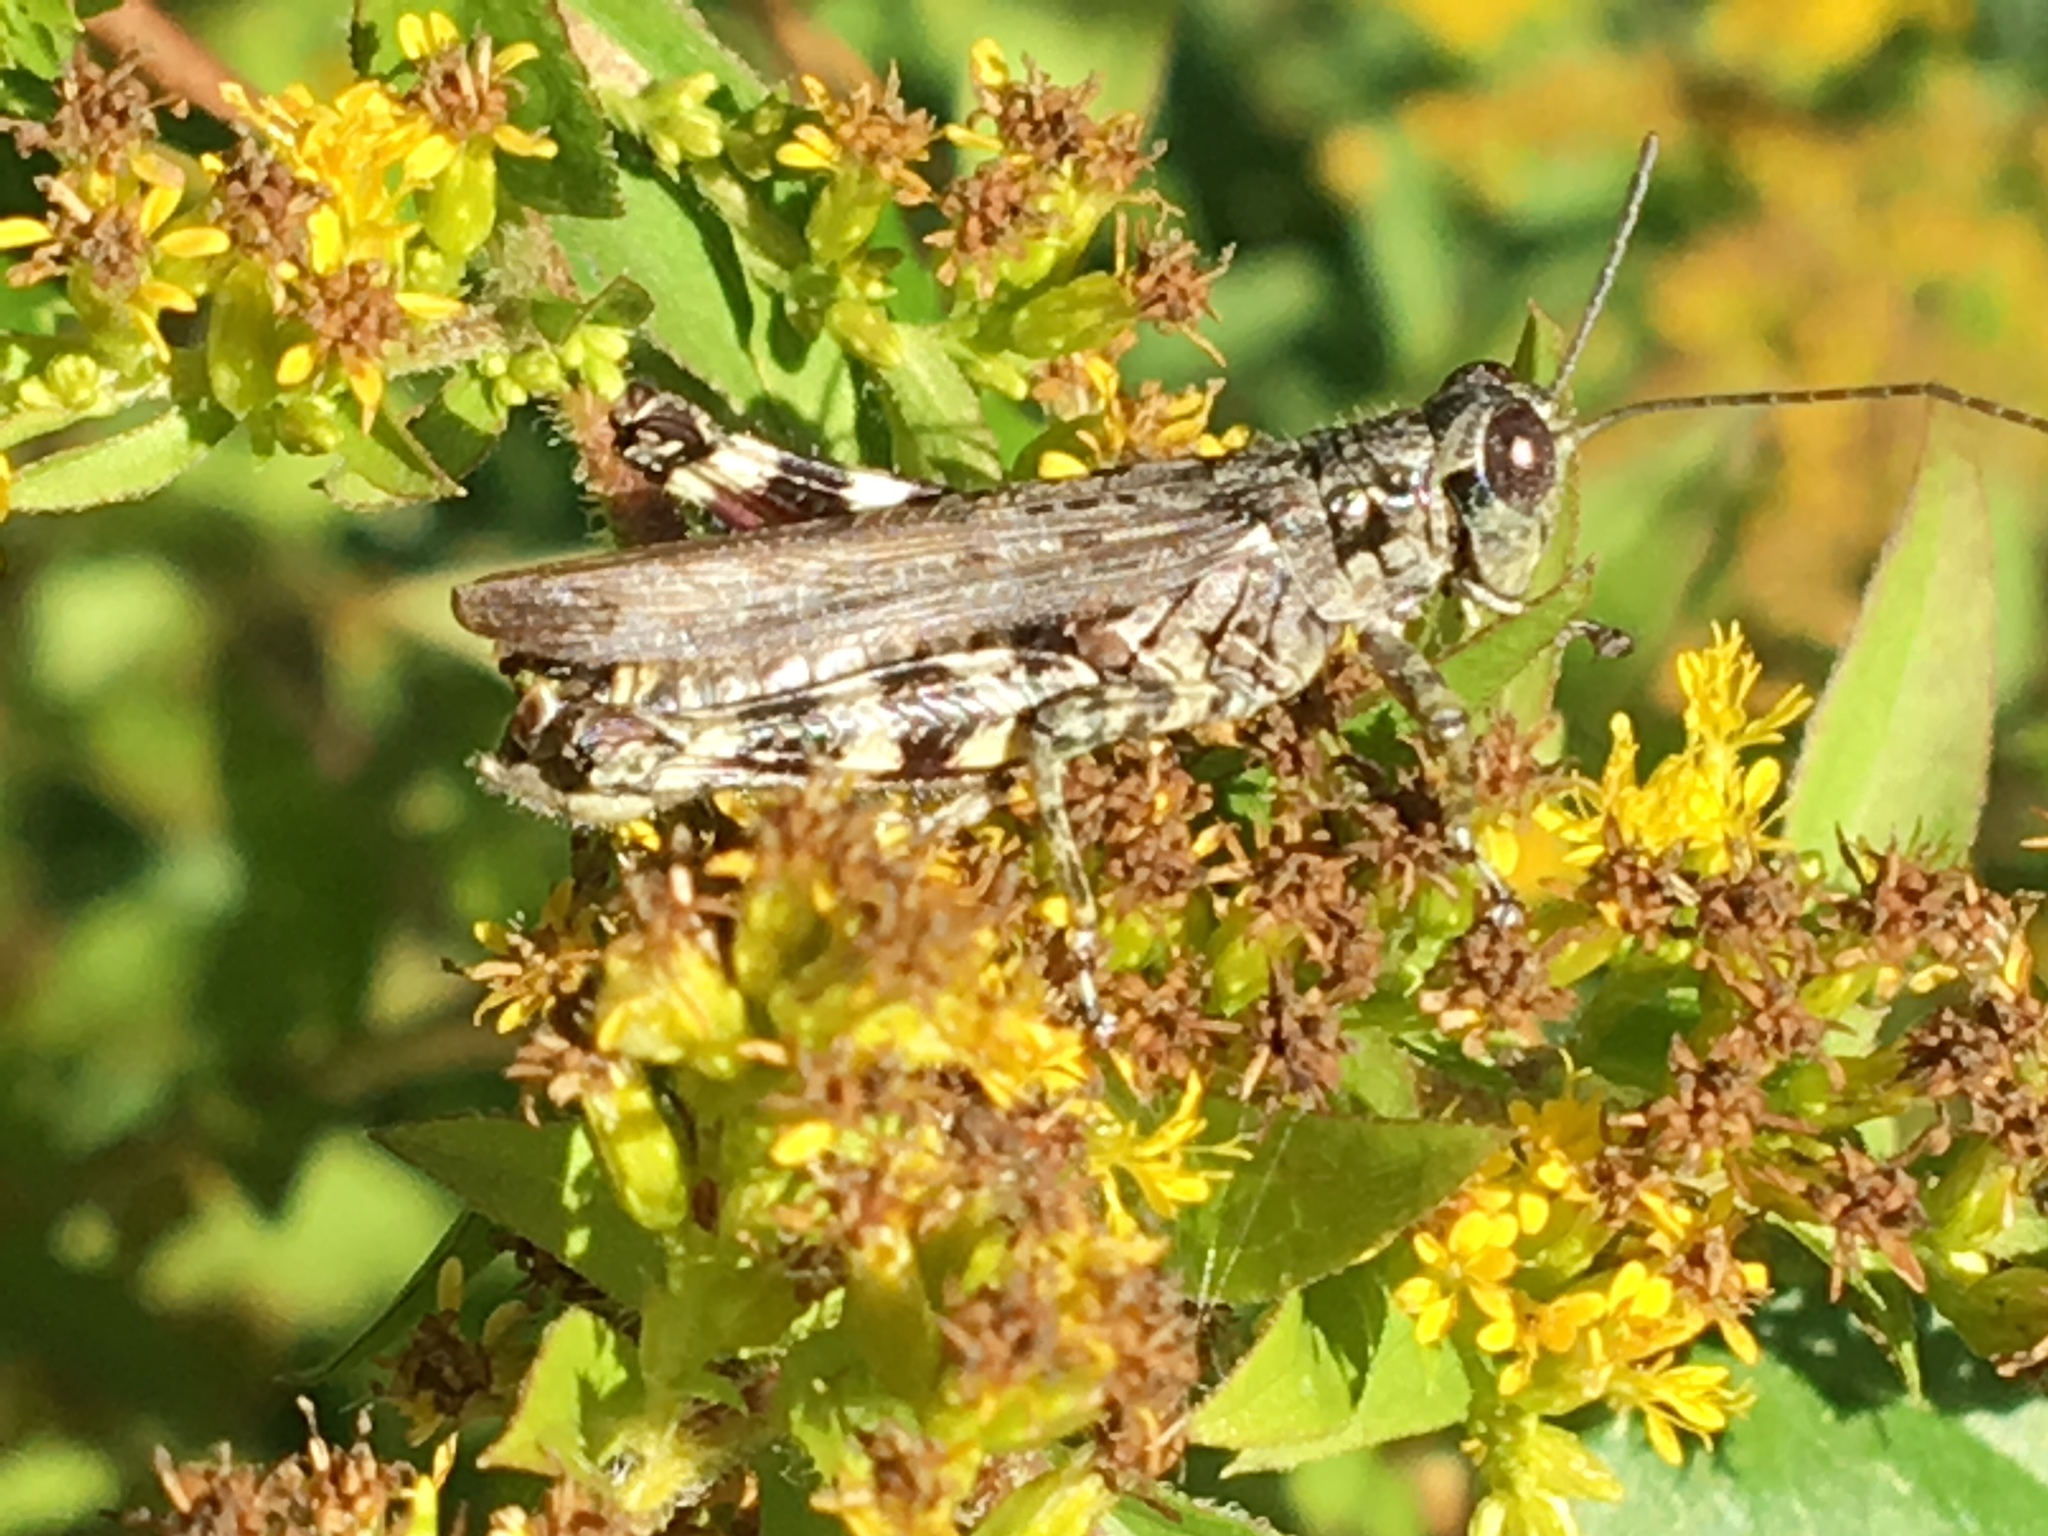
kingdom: Animalia
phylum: Arthropoda
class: Insecta
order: Orthoptera
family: Acrididae
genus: Melanoplus
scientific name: Melanoplus punctulatus
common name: Pine-tree spur-throat grasshopper
